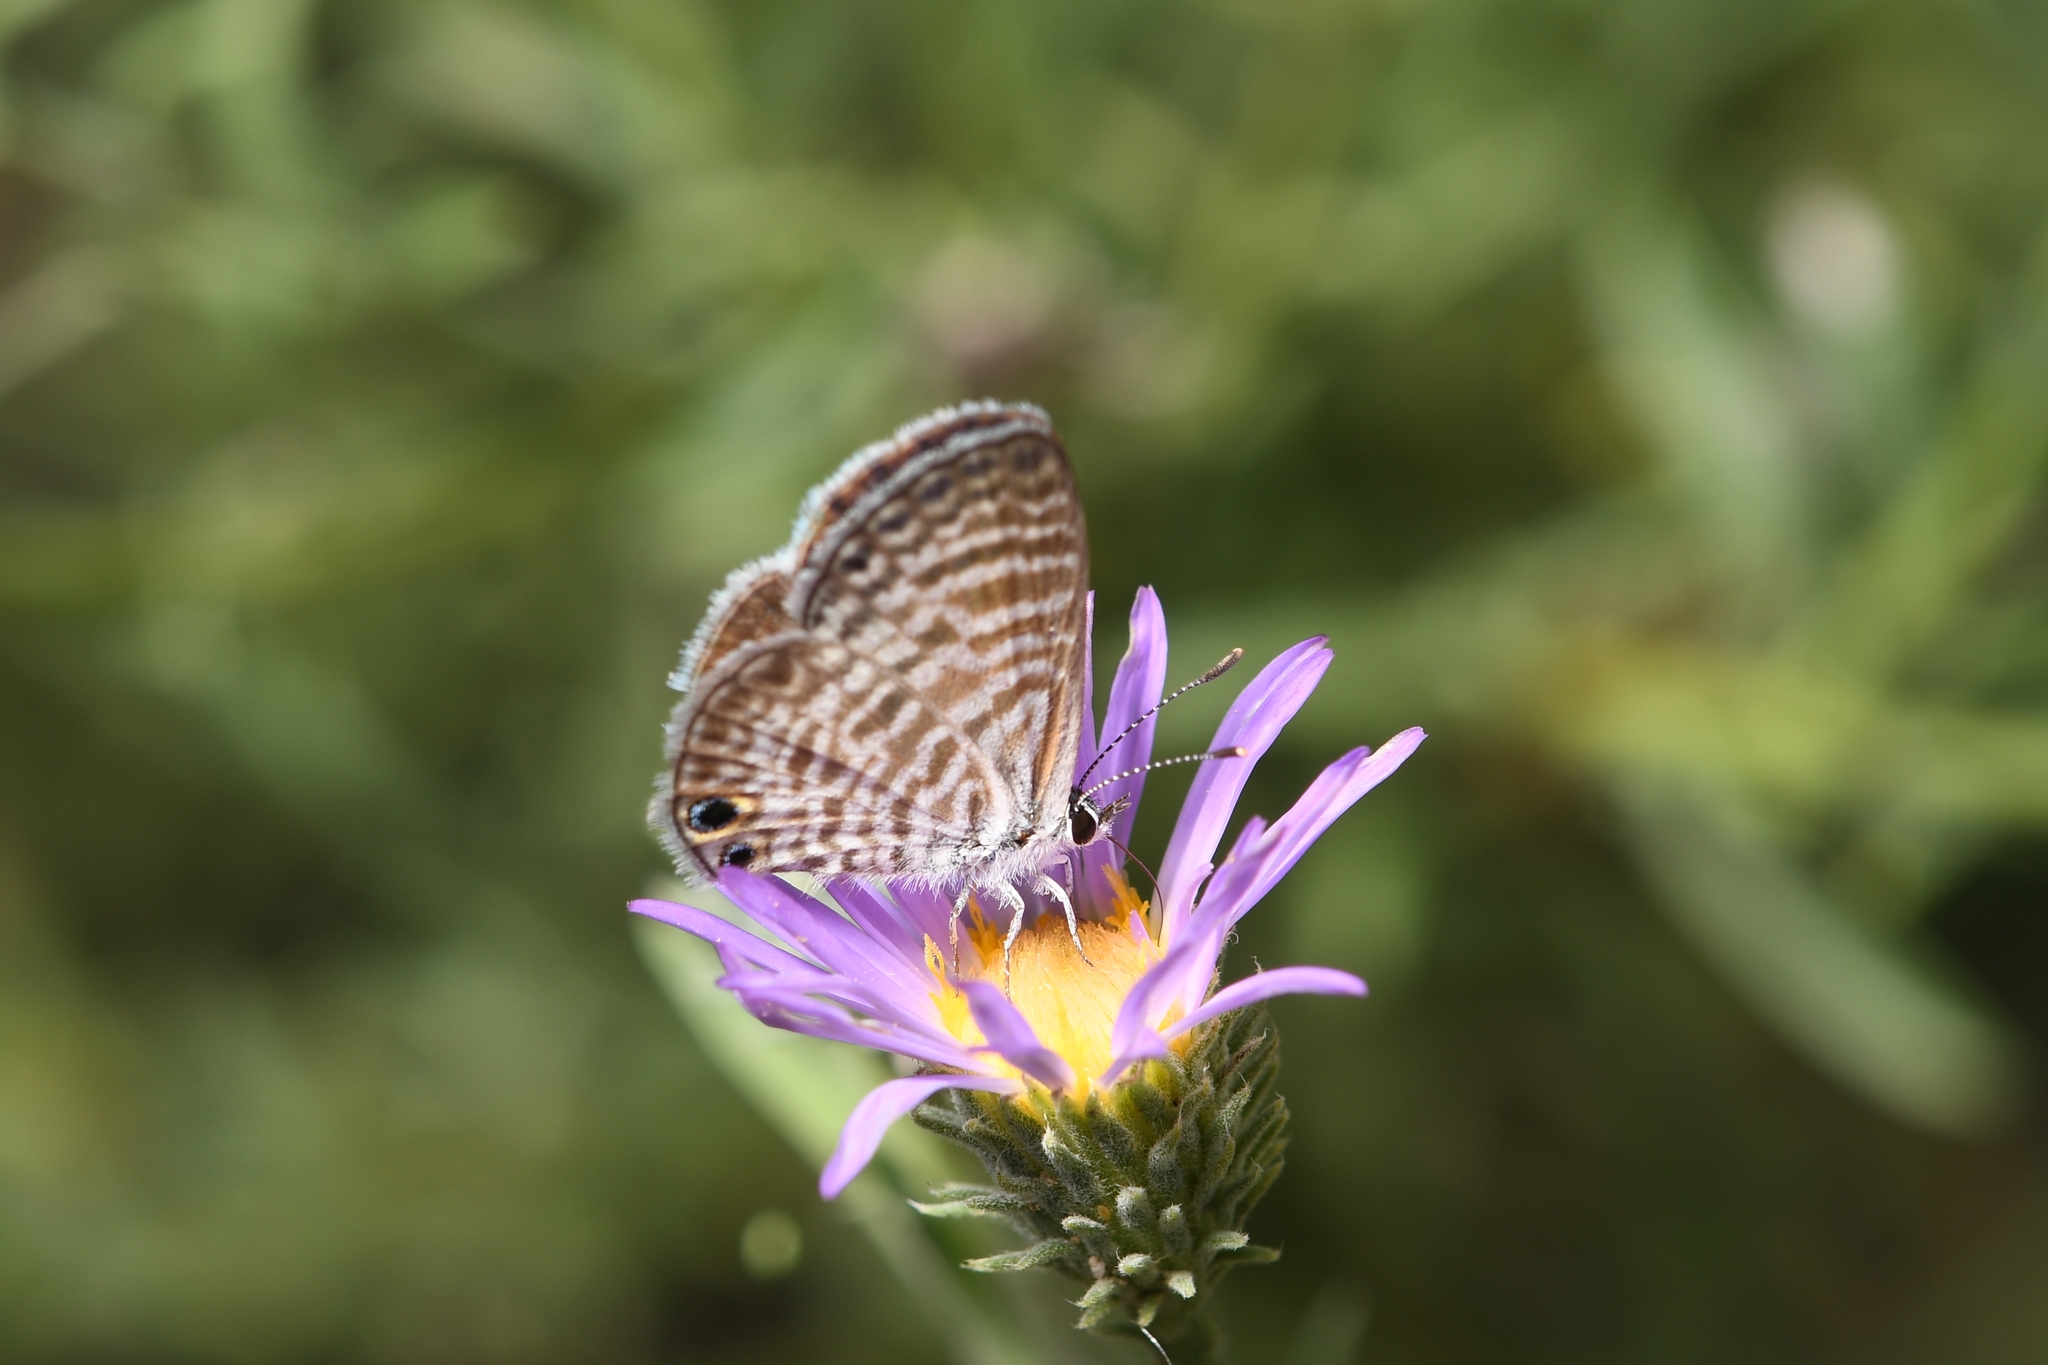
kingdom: Animalia
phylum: Arthropoda
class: Insecta
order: Lepidoptera
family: Lycaenidae
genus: Leptotes
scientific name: Leptotes marina
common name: Marine blue
